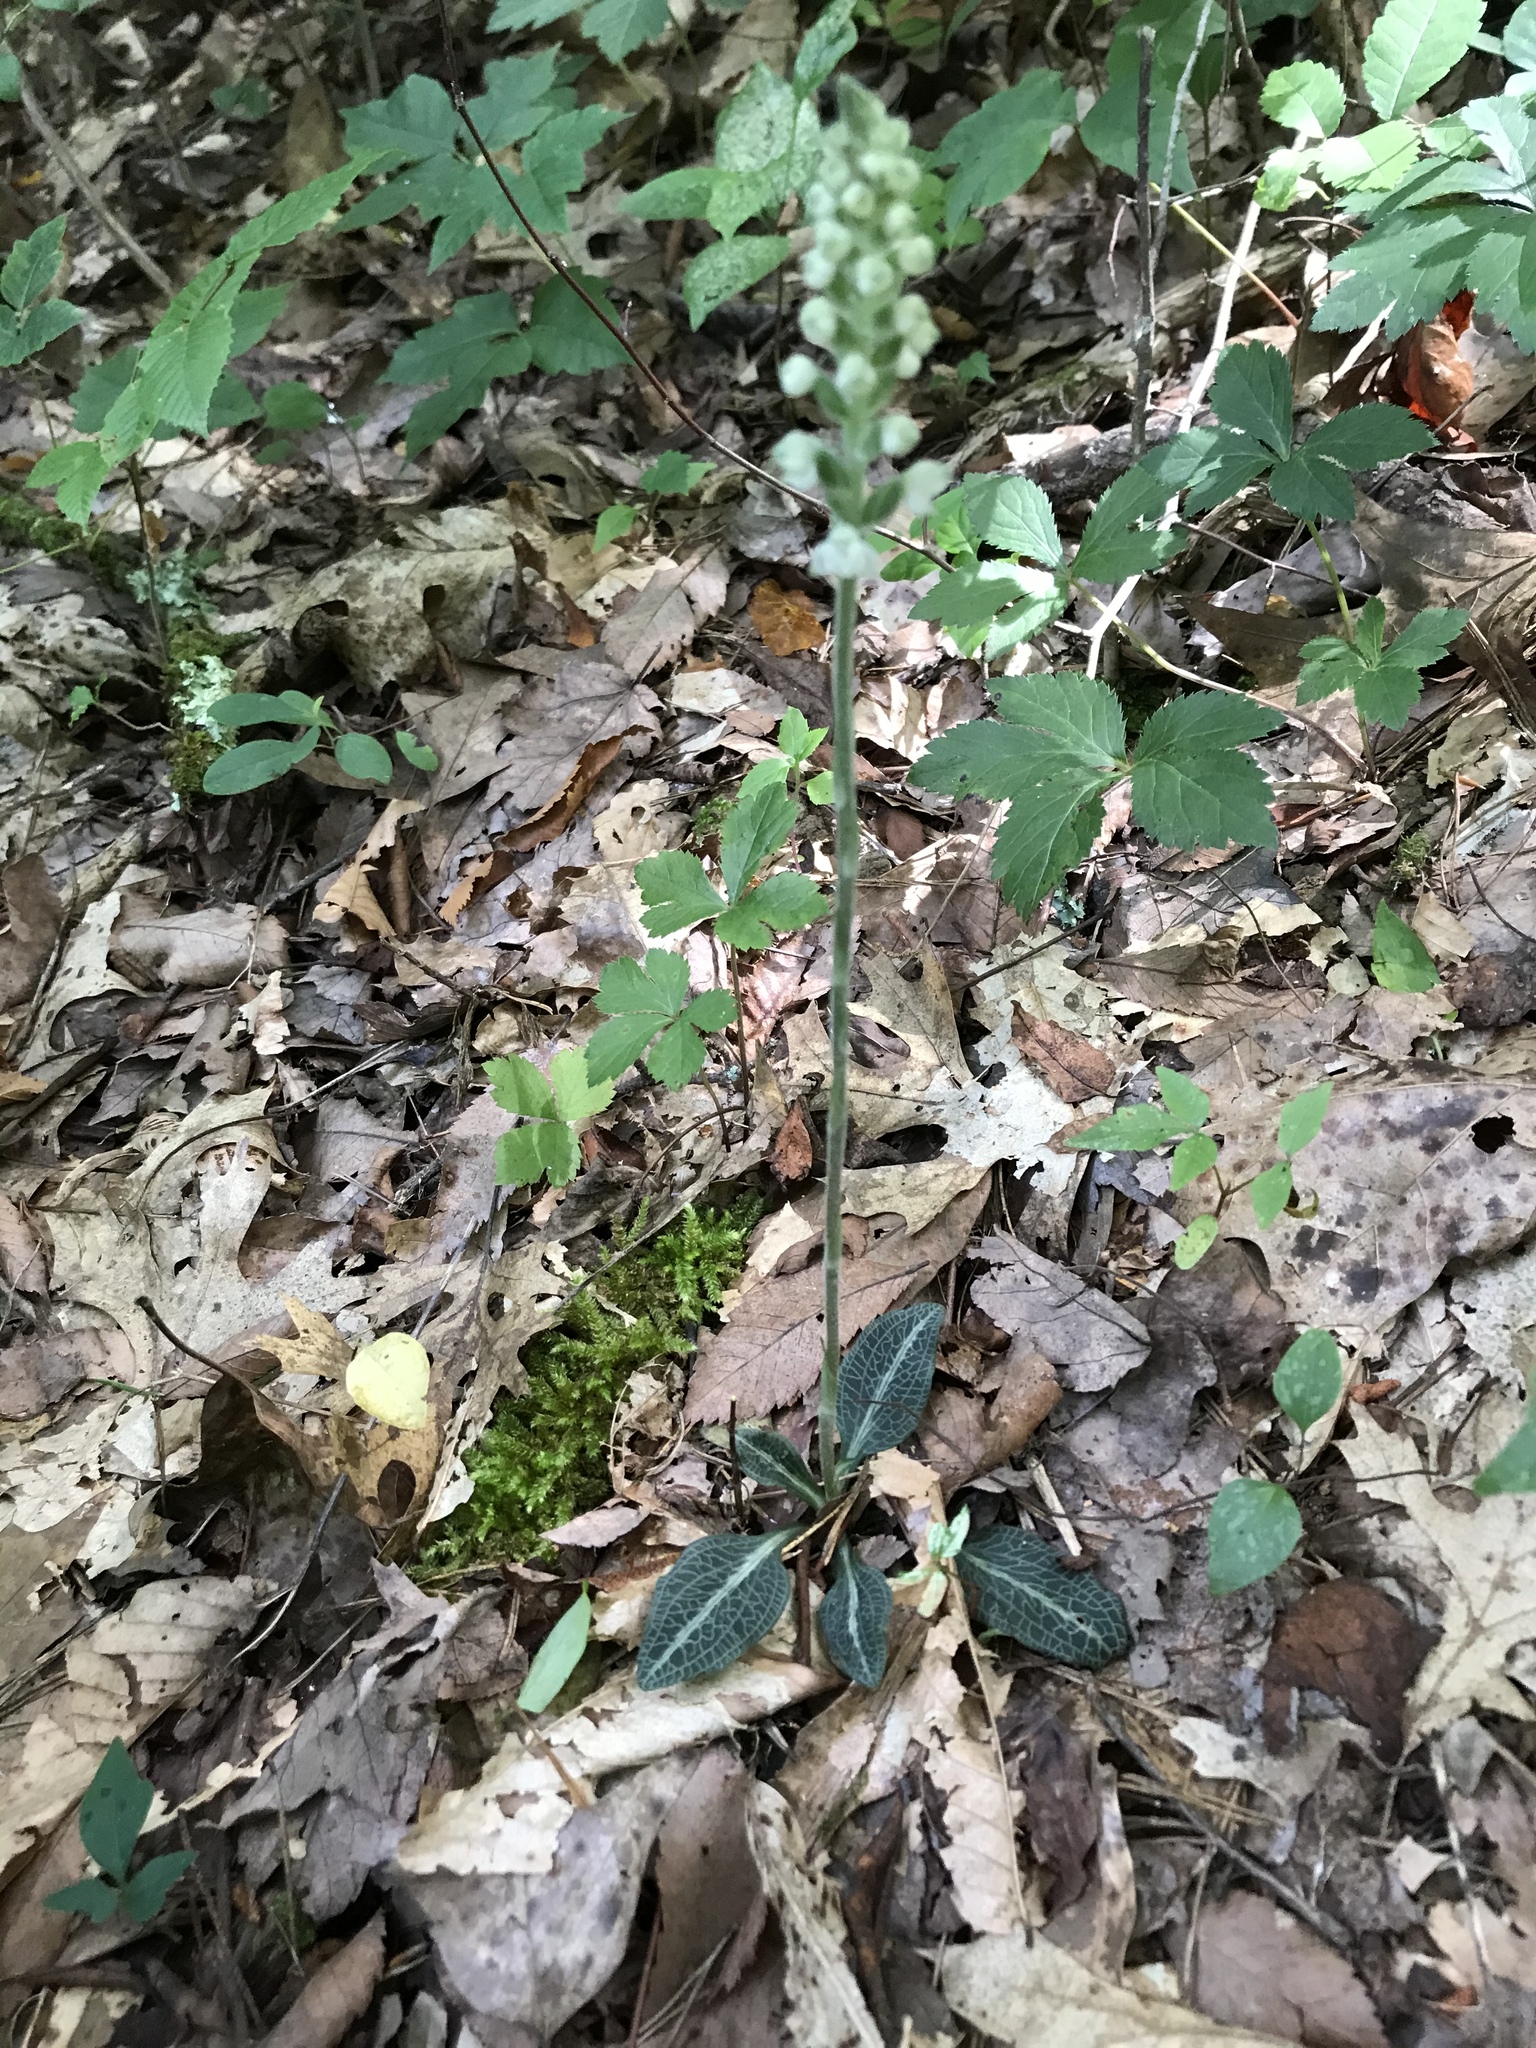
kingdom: Plantae
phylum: Tracheophyta
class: Liliopsida
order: Asparagales
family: Orchidaceae
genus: Goodyera
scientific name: Goodyera pubescens
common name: Downy rattlesnake-plantain
